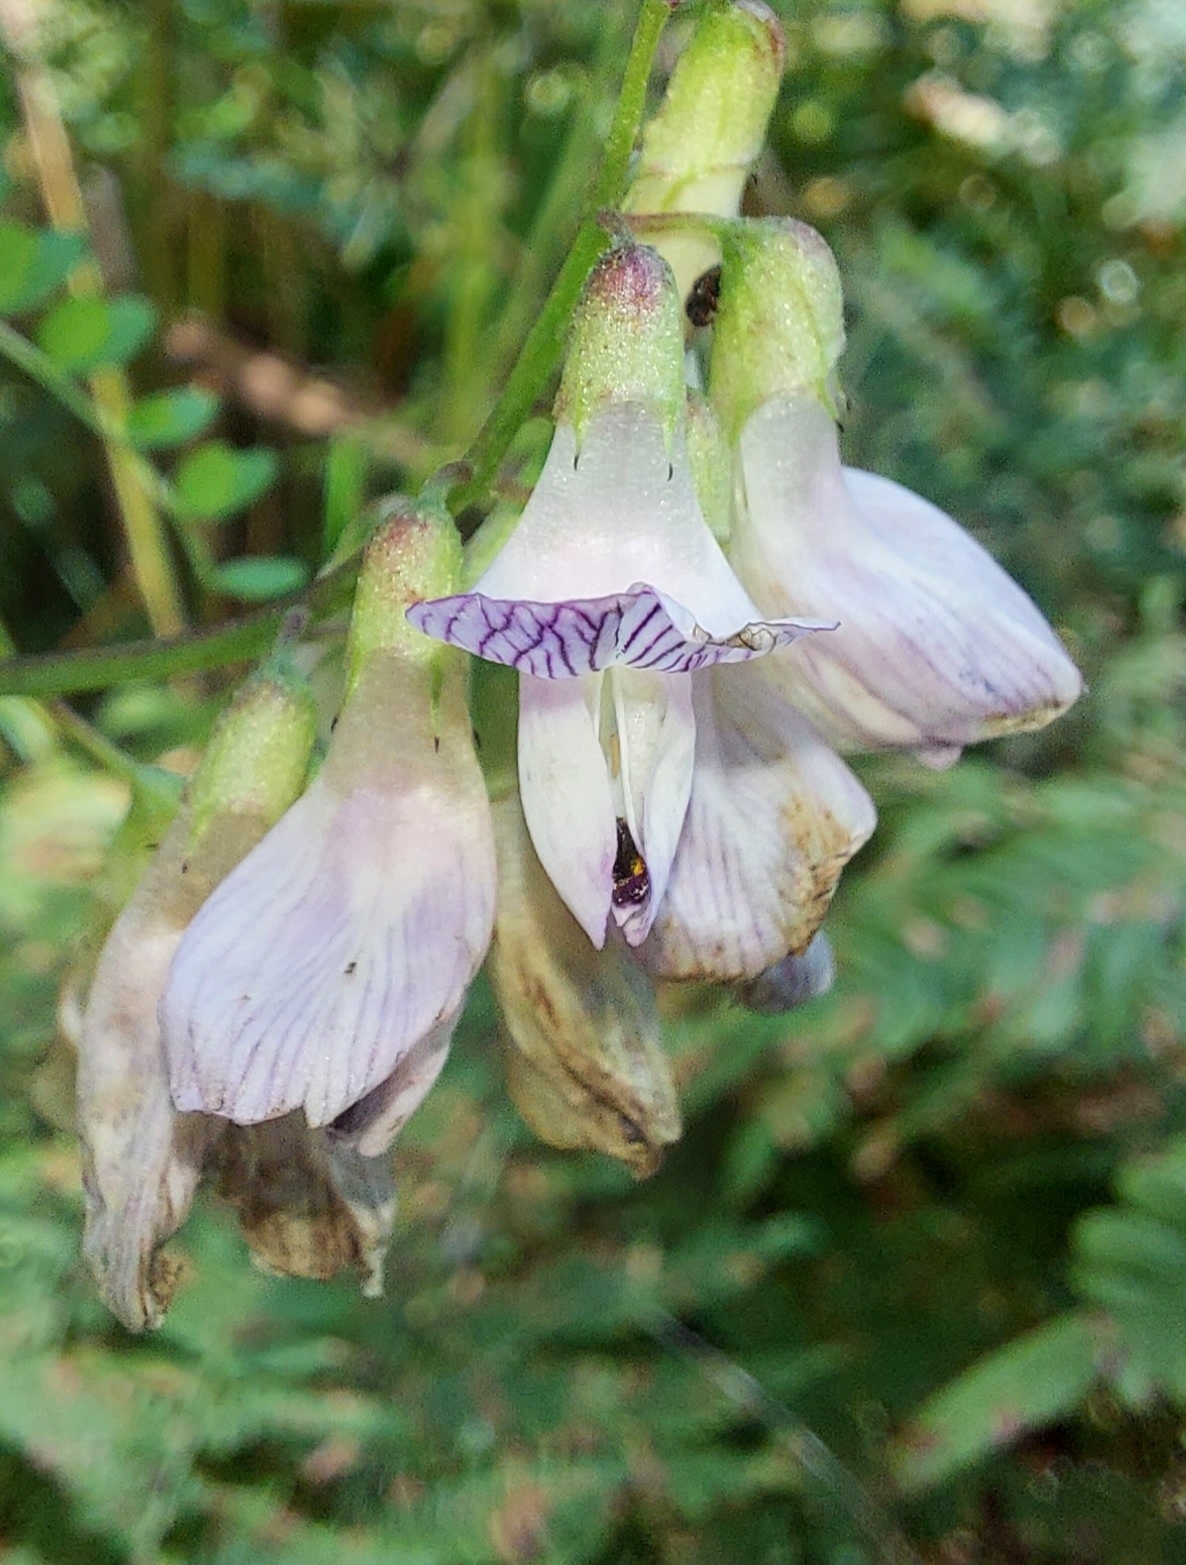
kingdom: Plantae
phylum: Tracheophyta
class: Magnoliopsida
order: Fabales
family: Fabaceae
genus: Vicia
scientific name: Vicia sylvatica
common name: Wood vetch
